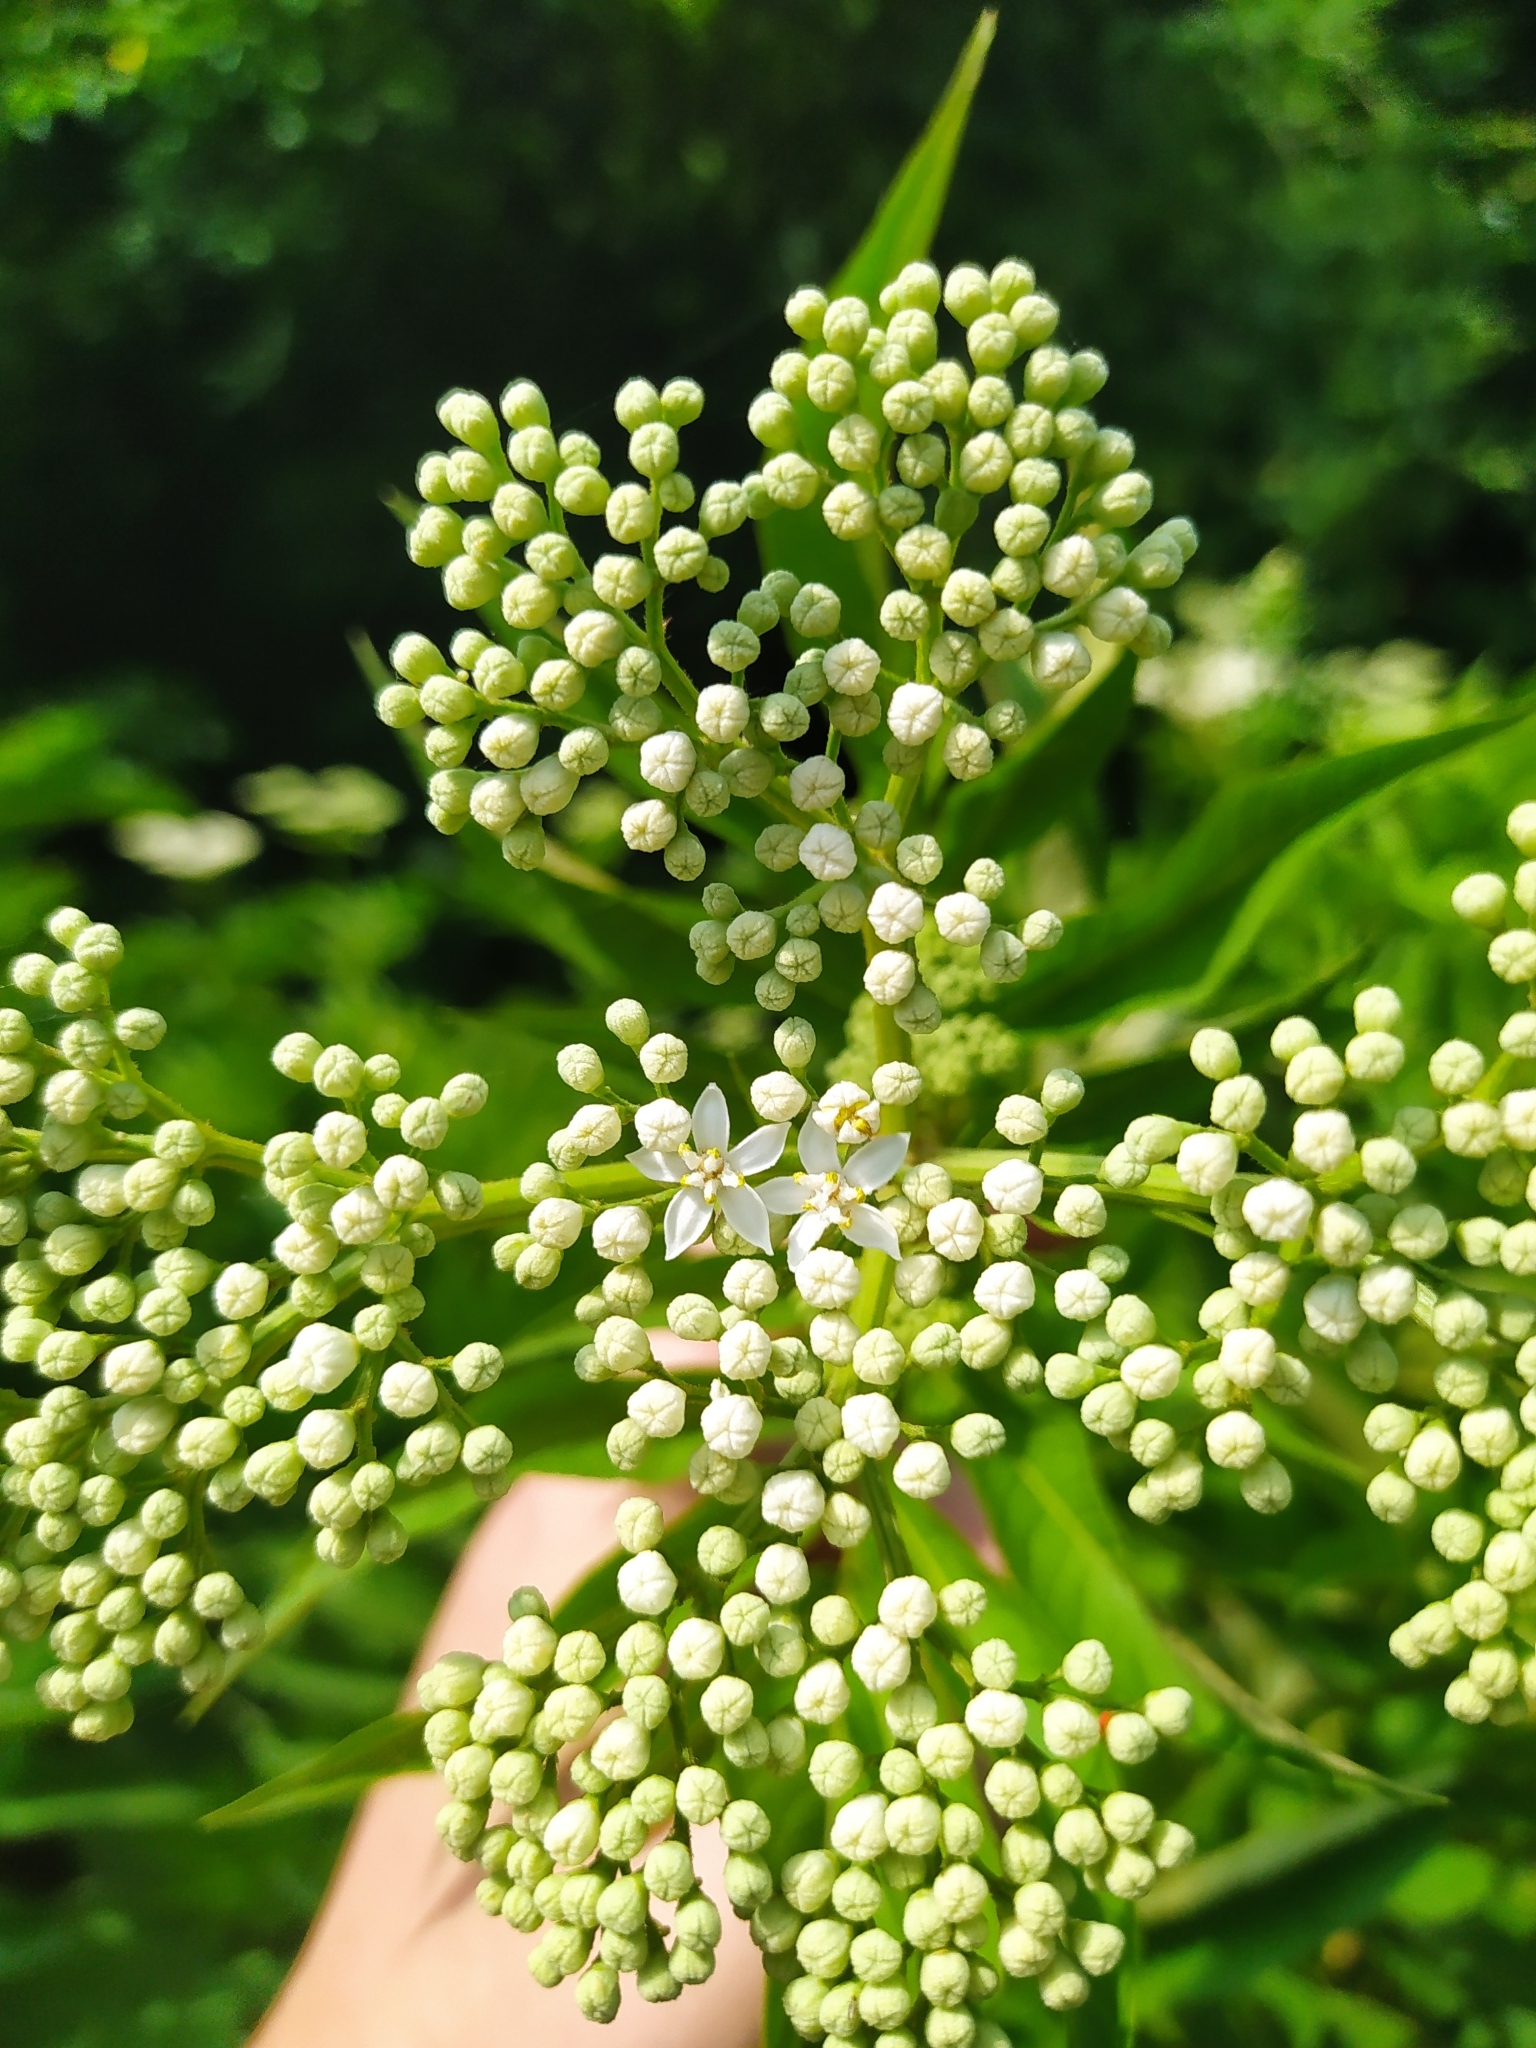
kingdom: Plantae
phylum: Tracheophyta
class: Magnoliopsida
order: Dipsacales
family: Viburnaceae
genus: Sambucus
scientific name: Sambucus ebulus
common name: Dwarf elder
